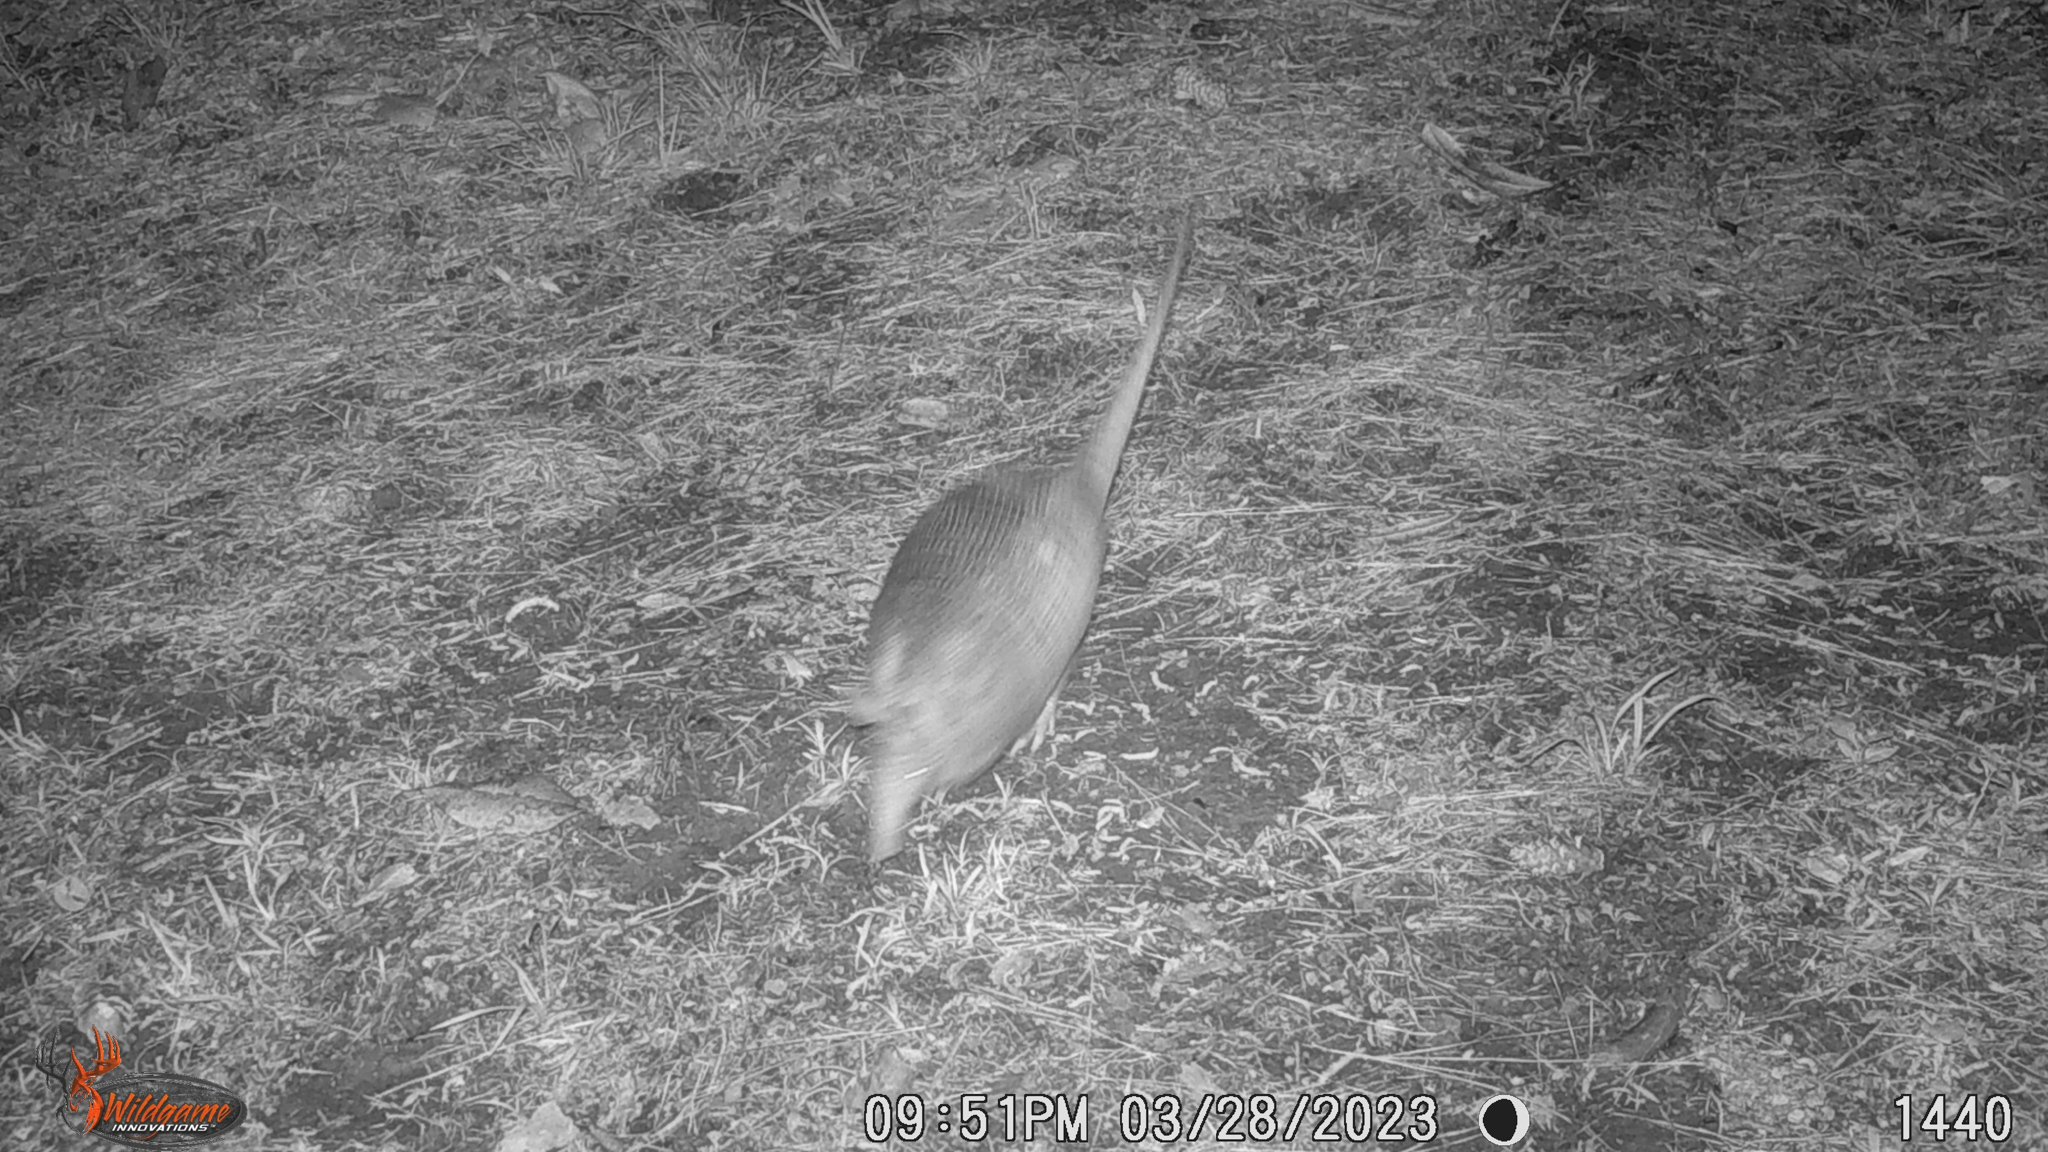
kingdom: Animalia
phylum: Chordata
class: Mammalia
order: Cingulata
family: Dasypodidae
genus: Dasypus
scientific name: Dasypus novemcinctus
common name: Nine-banded armadillo
